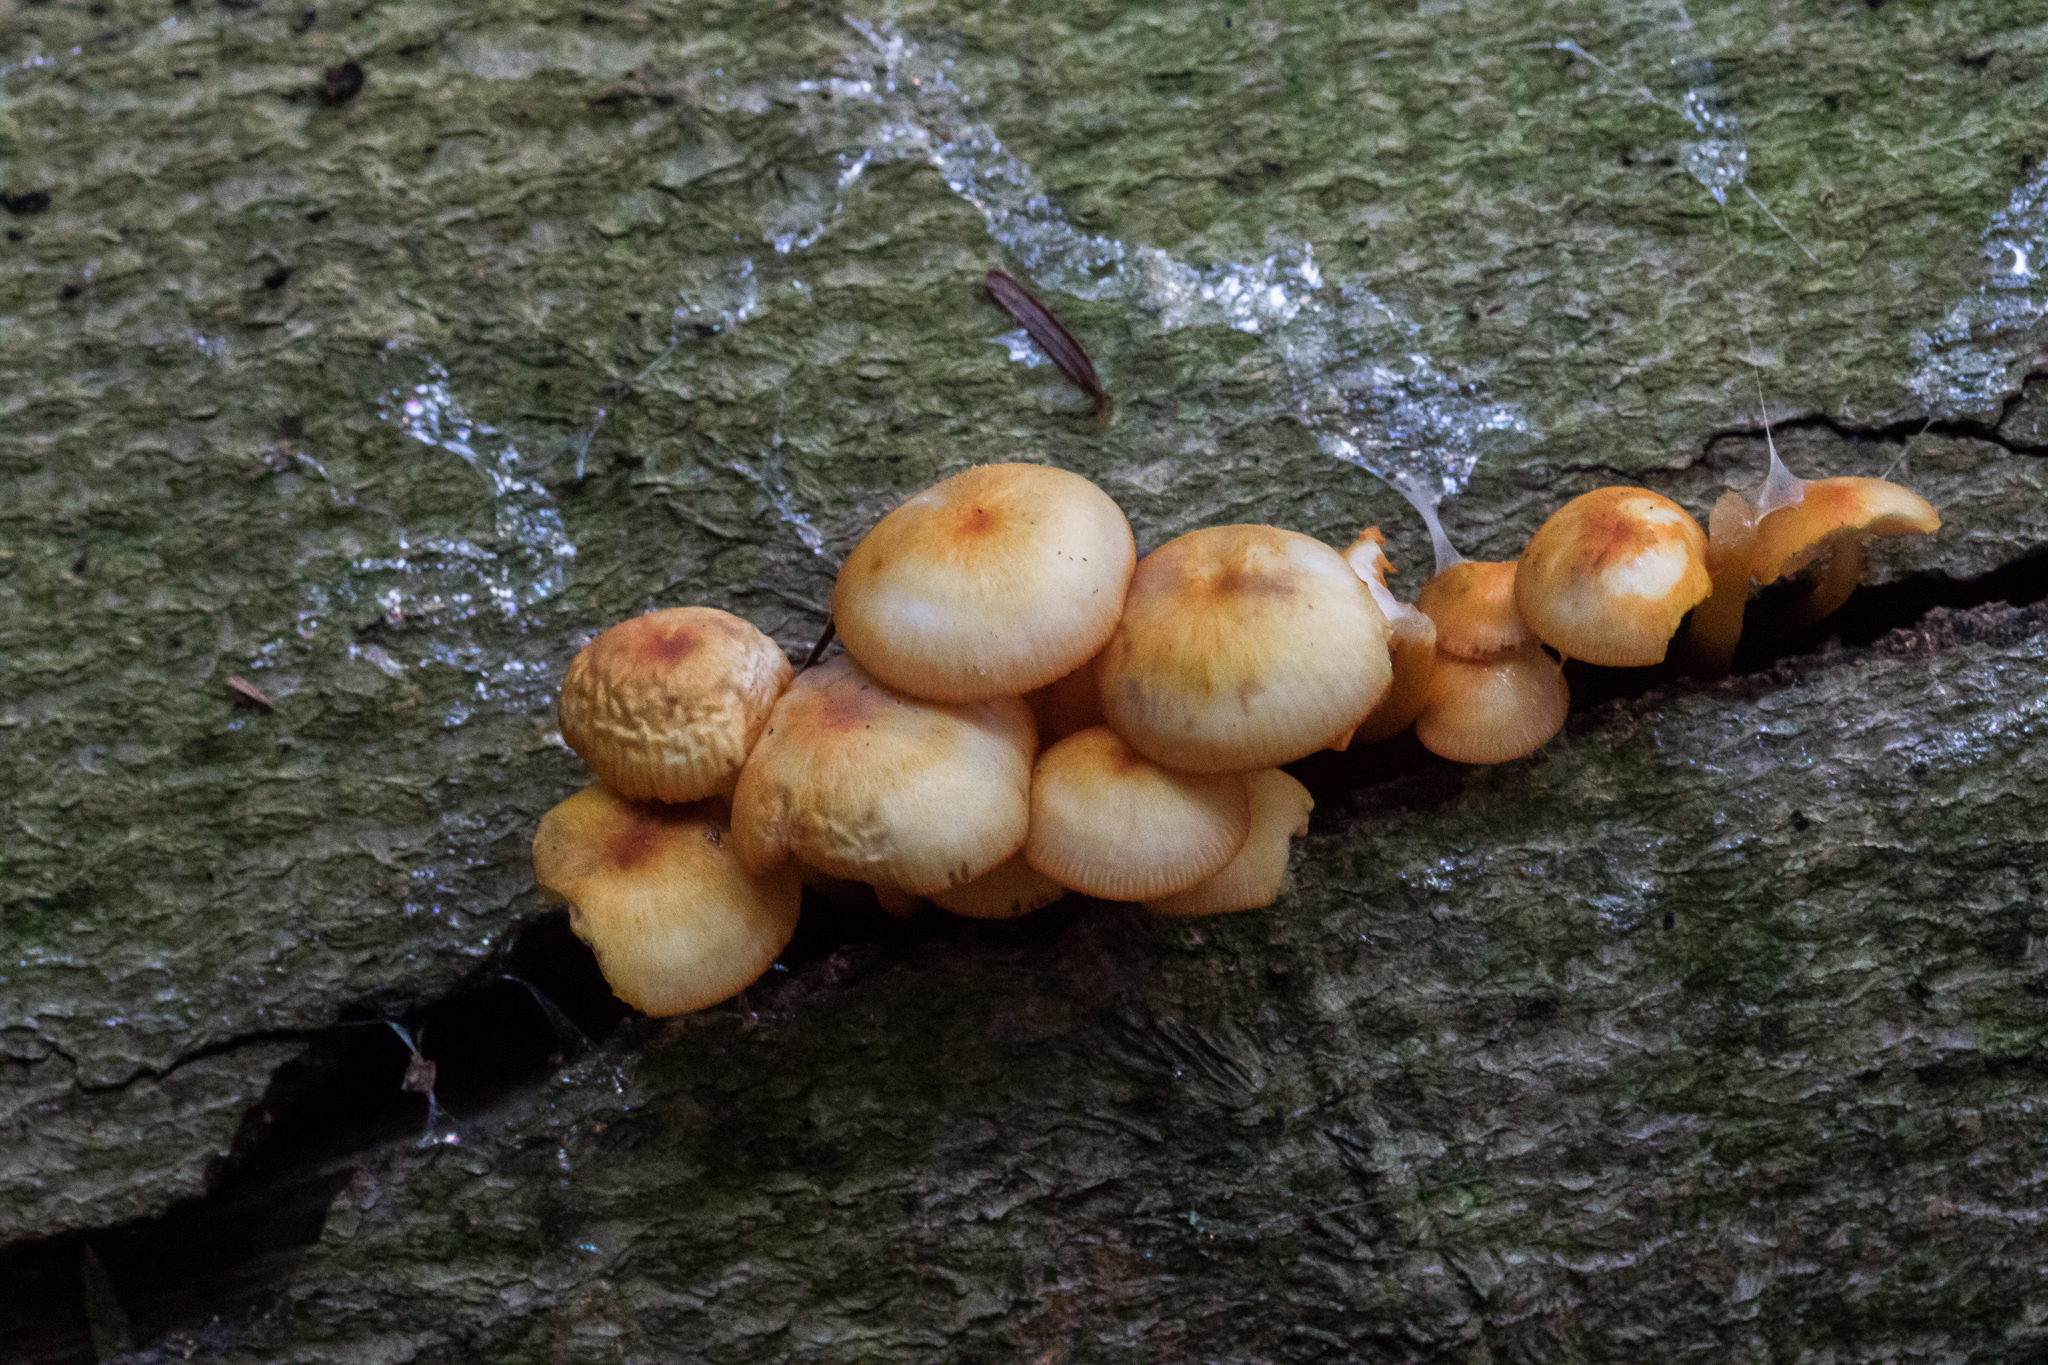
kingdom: Fungi
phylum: Basidiomycota
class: Agaricomycetes
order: Agaricales
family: Mycenaceae
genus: Mycena
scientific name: Mycena leaiana
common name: Orange mycena
